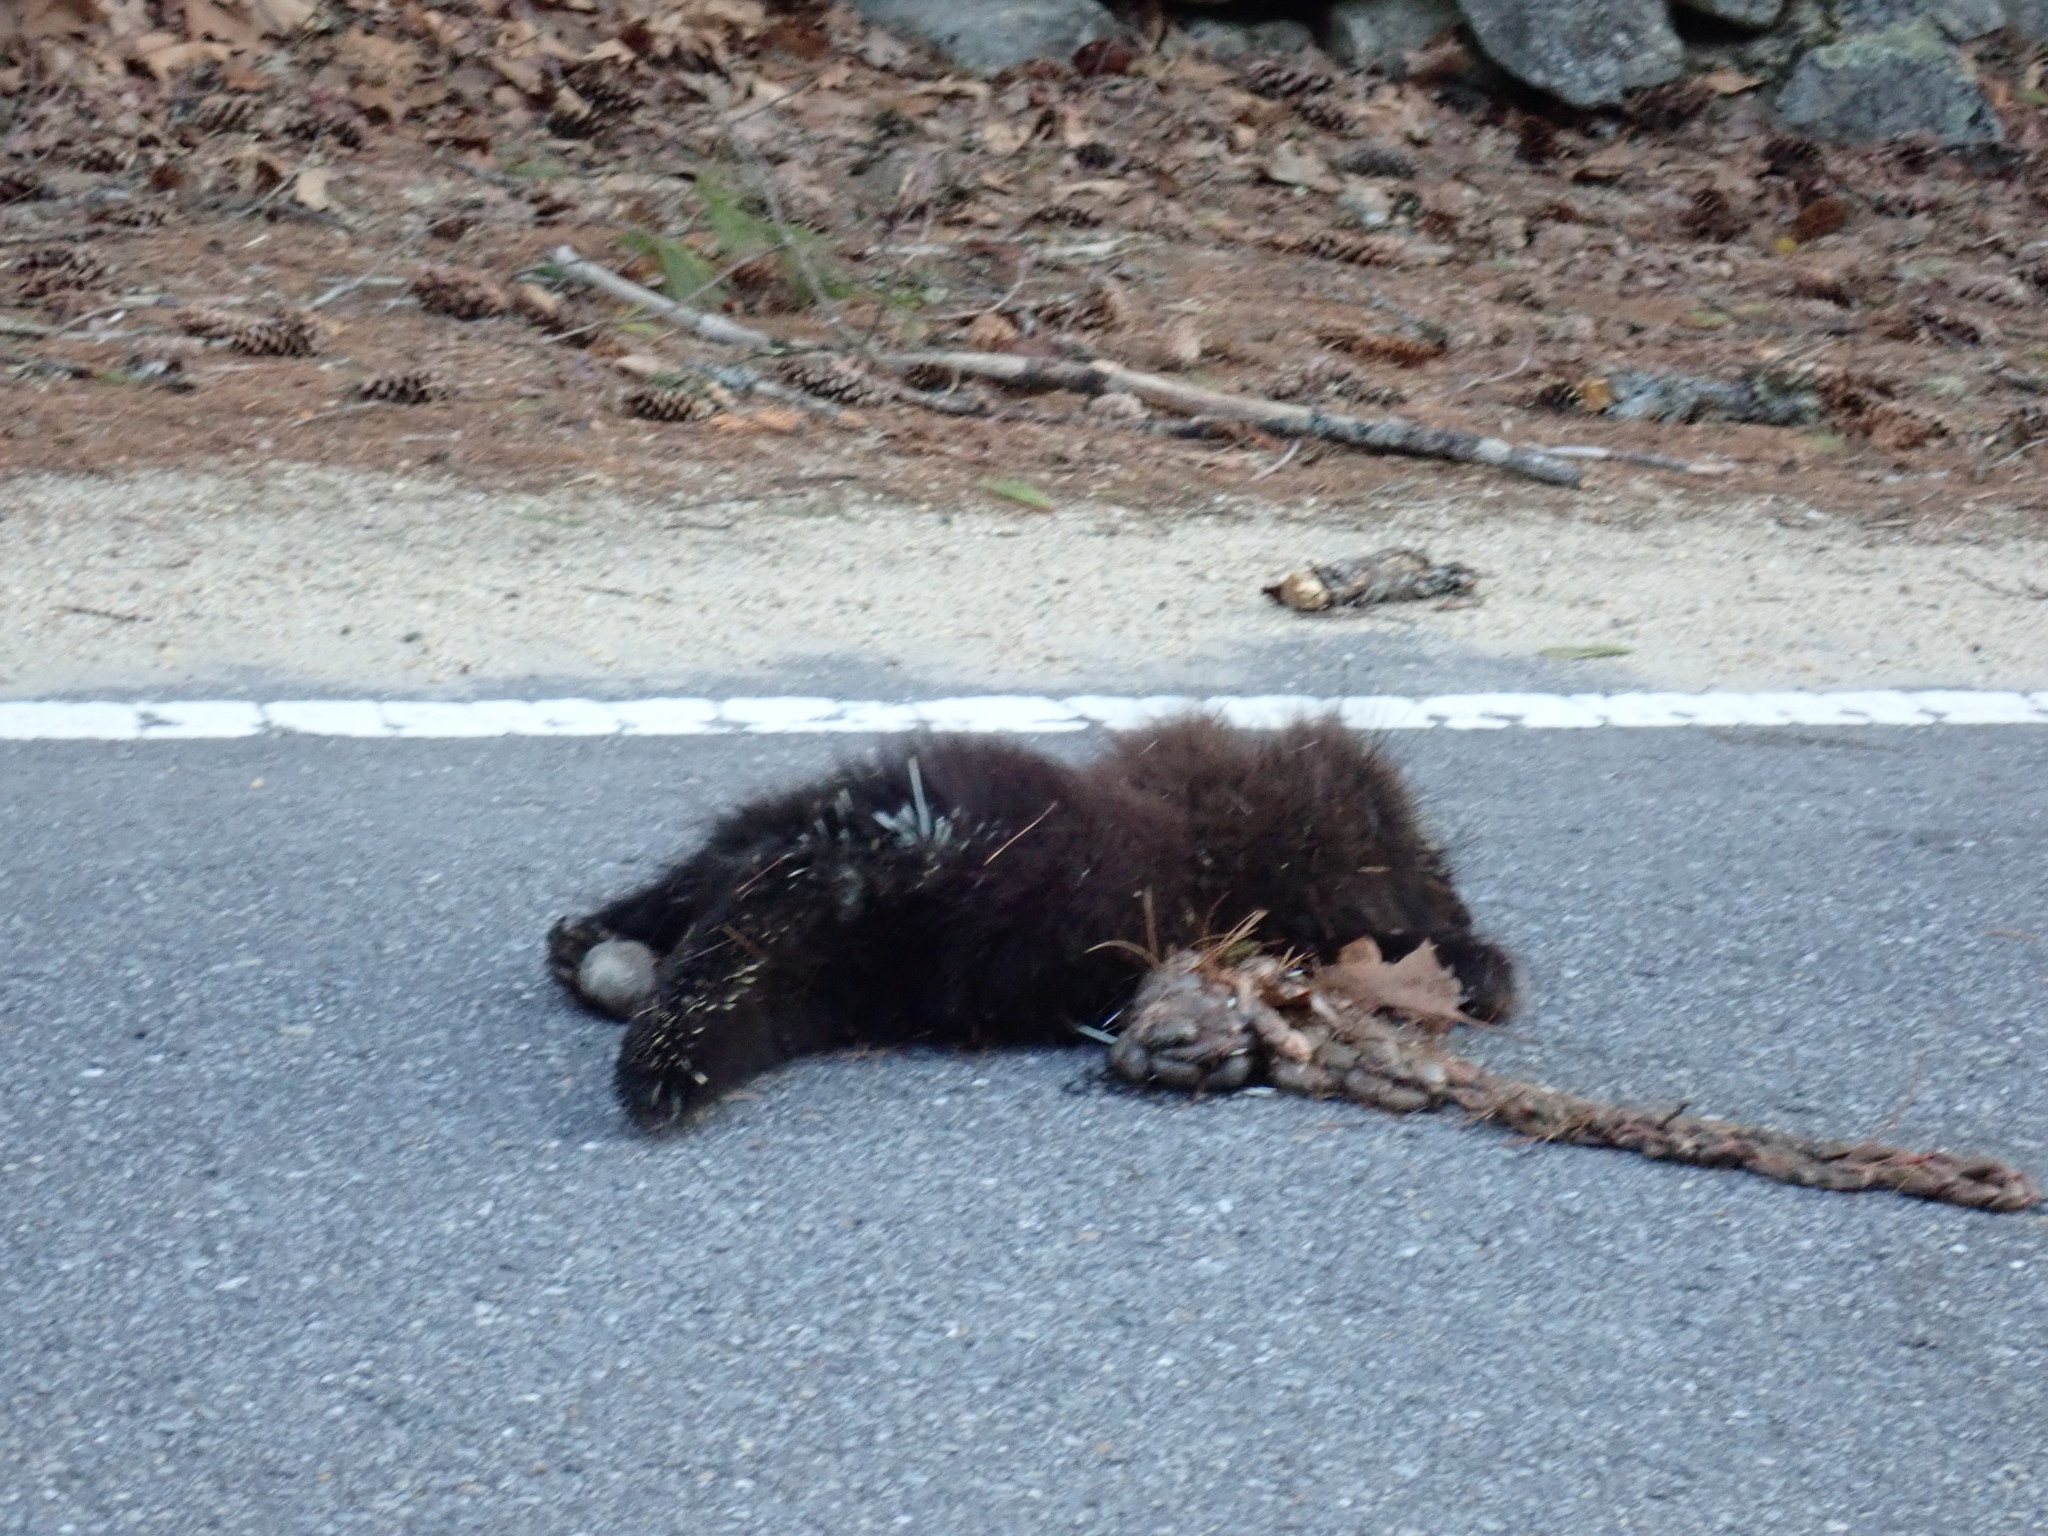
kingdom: Animalia
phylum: Chordata
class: Mammalia
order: Rodentia
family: Erethizontidae
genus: Erethizon
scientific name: Erethizon dorsatus
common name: North american porcupine
